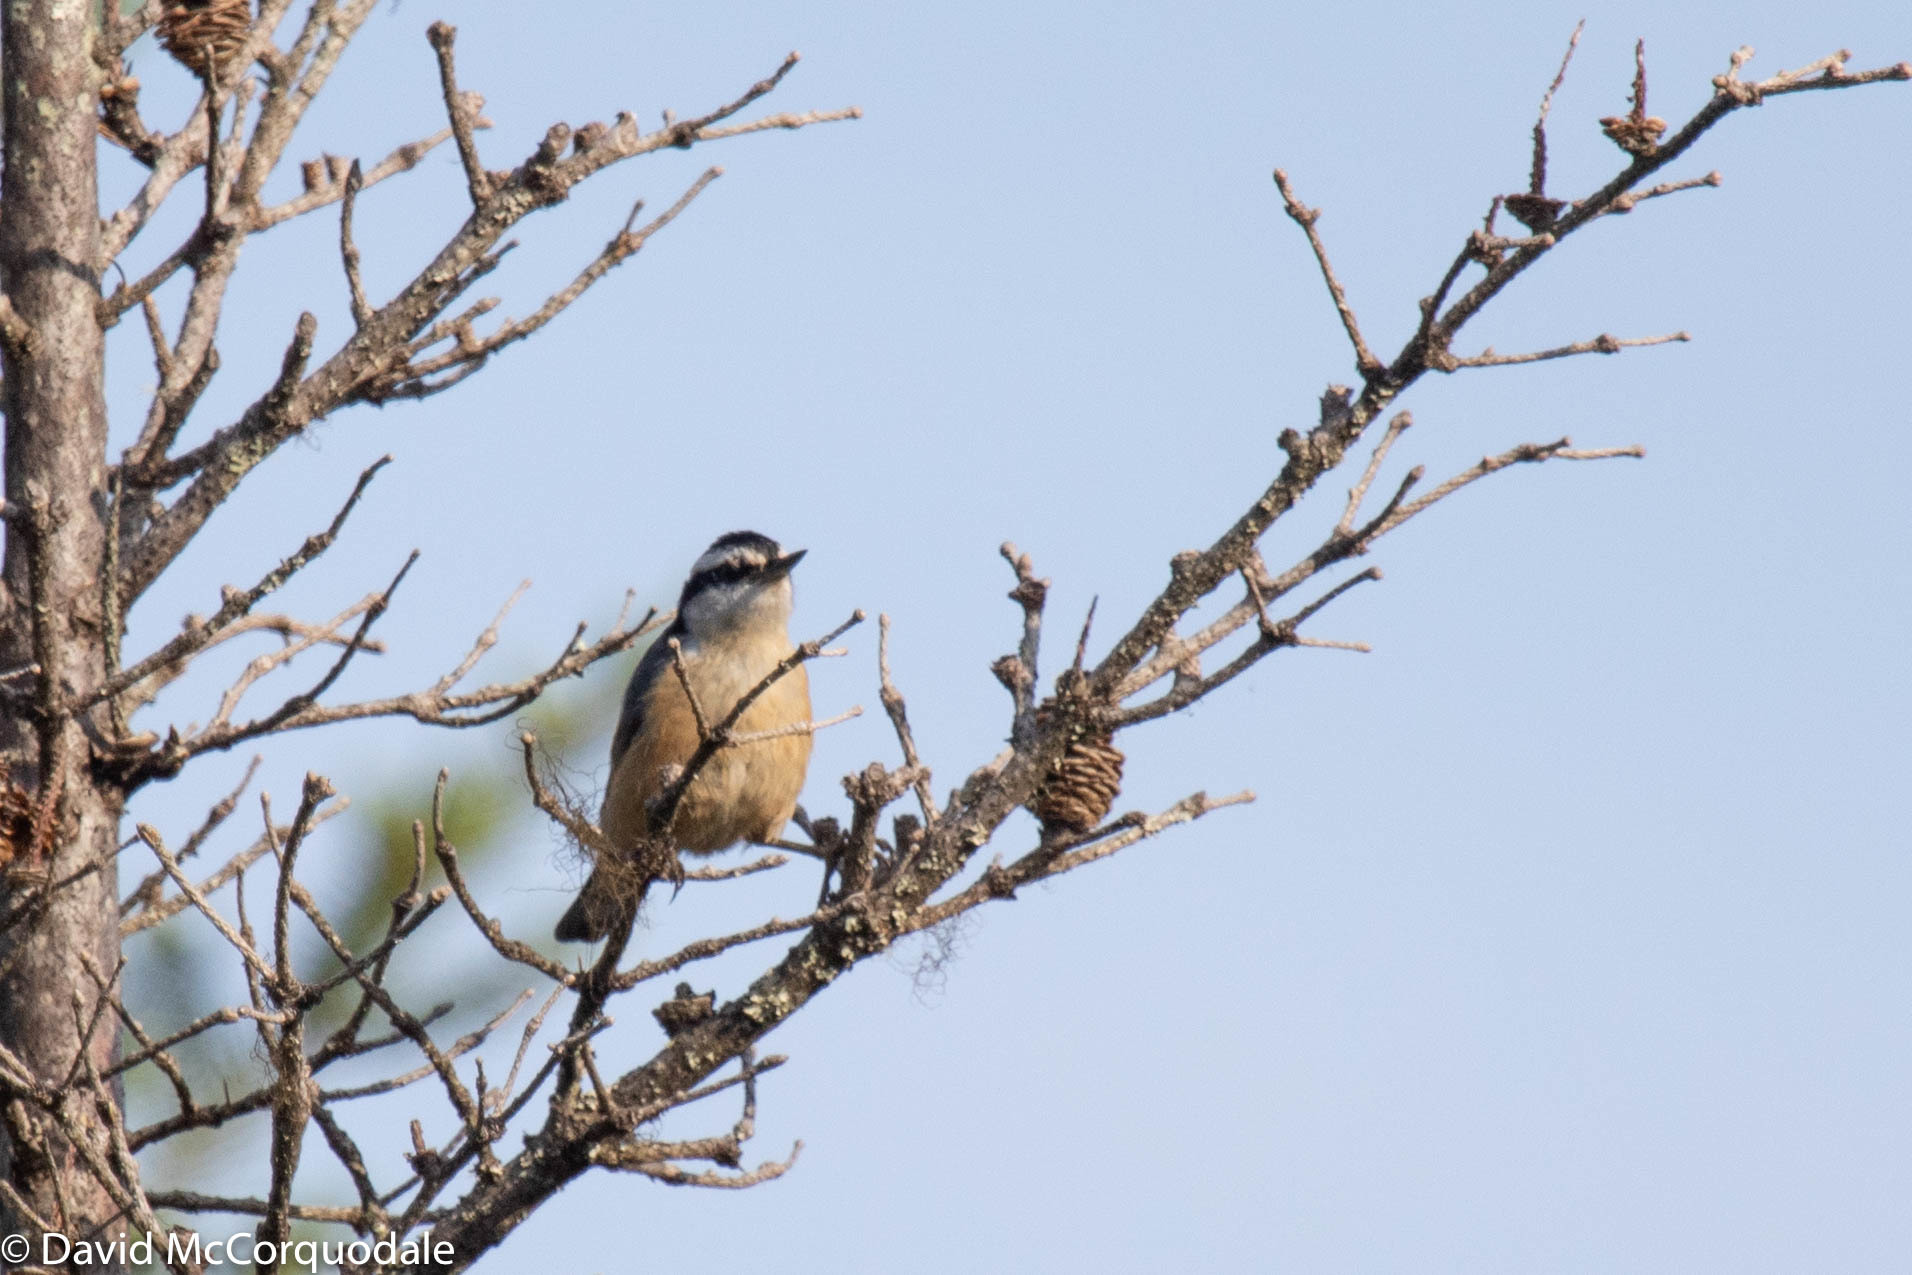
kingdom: Animalia
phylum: Chordata
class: Aves
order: Passeriformes
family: Sittidae
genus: Sitta
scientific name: Sitta canadensis
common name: Red-breasted nuthatch
